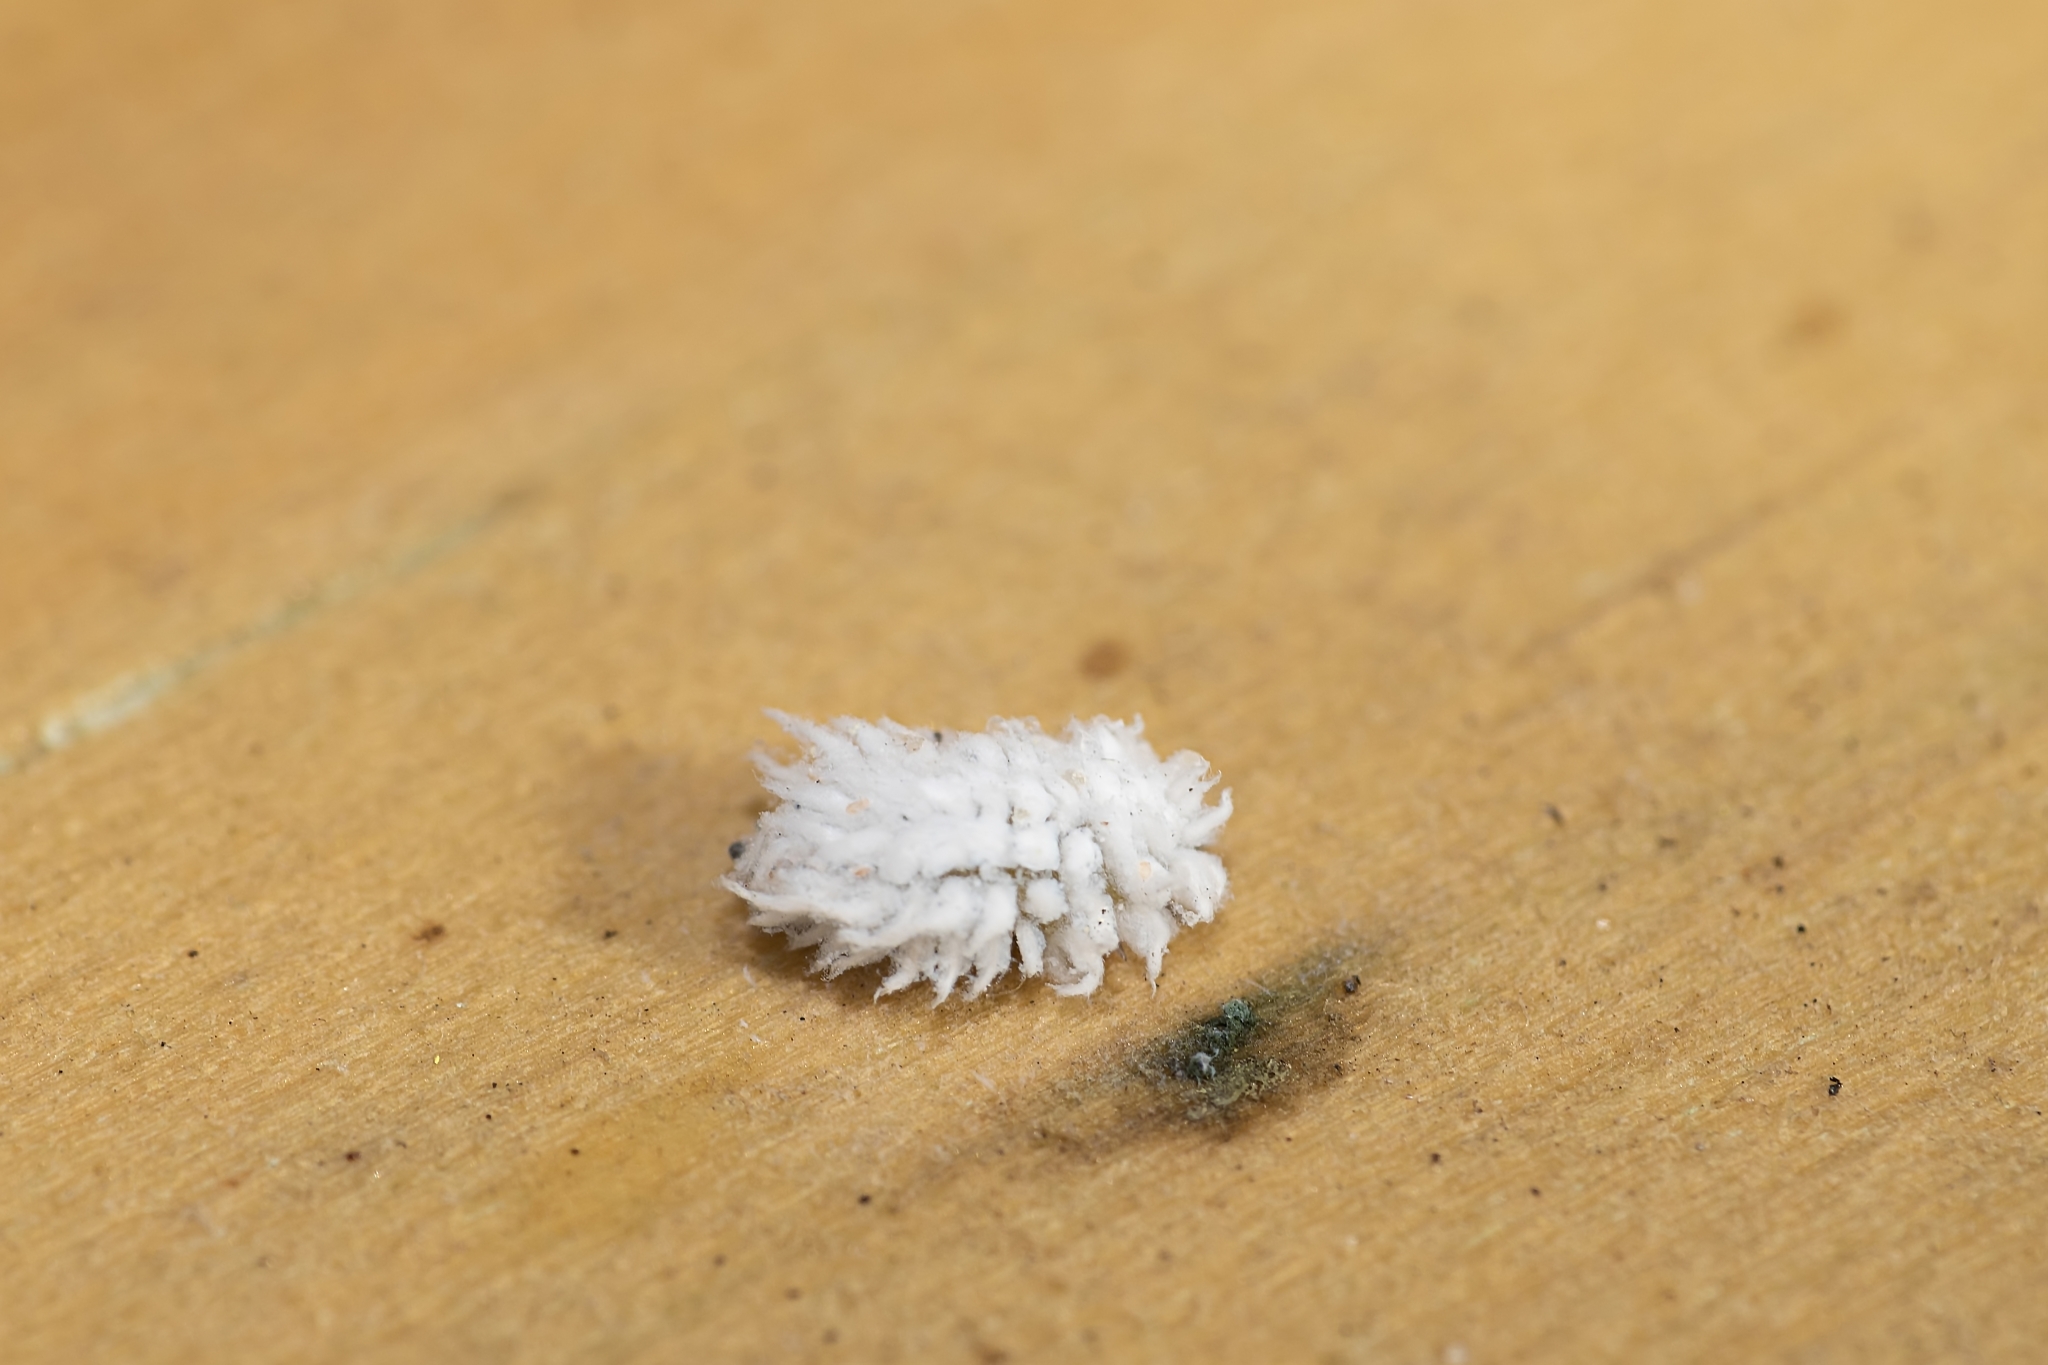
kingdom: Animalia
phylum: Arthropoda
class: Insecta
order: Coleoptera
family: Coccinellidae
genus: Cryptolaemus
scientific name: Cryptolaemus montrouzieri
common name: Mealybug destroyer
